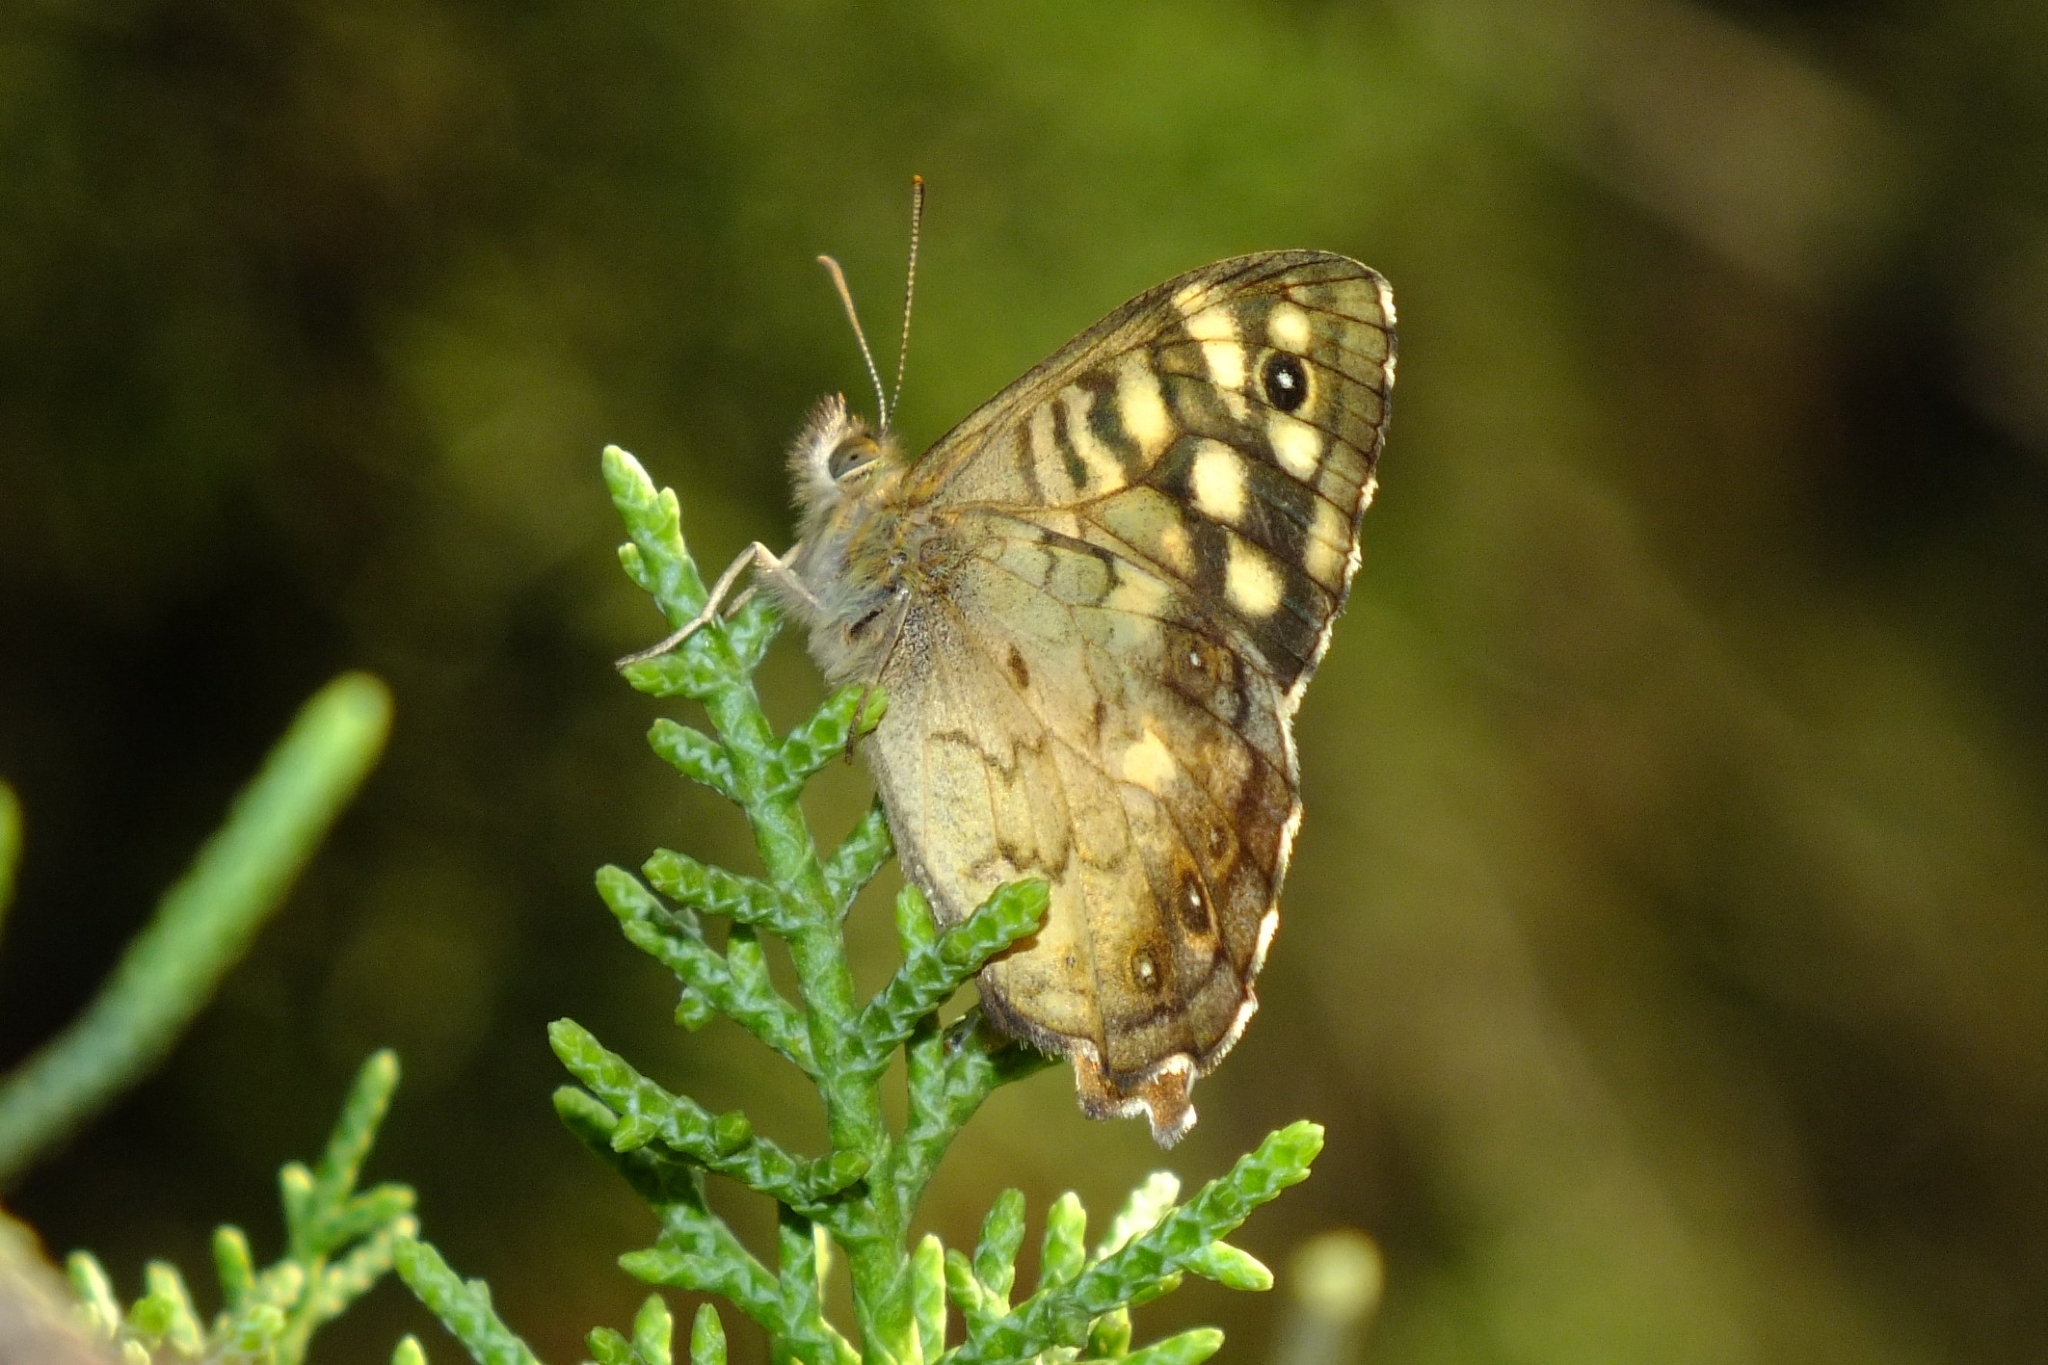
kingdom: Animalia
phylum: Arthropoda
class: Insecta
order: Lepidoptera
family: Nymphalidae
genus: Pararge
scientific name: Pararge aegeria
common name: Speckled wood
